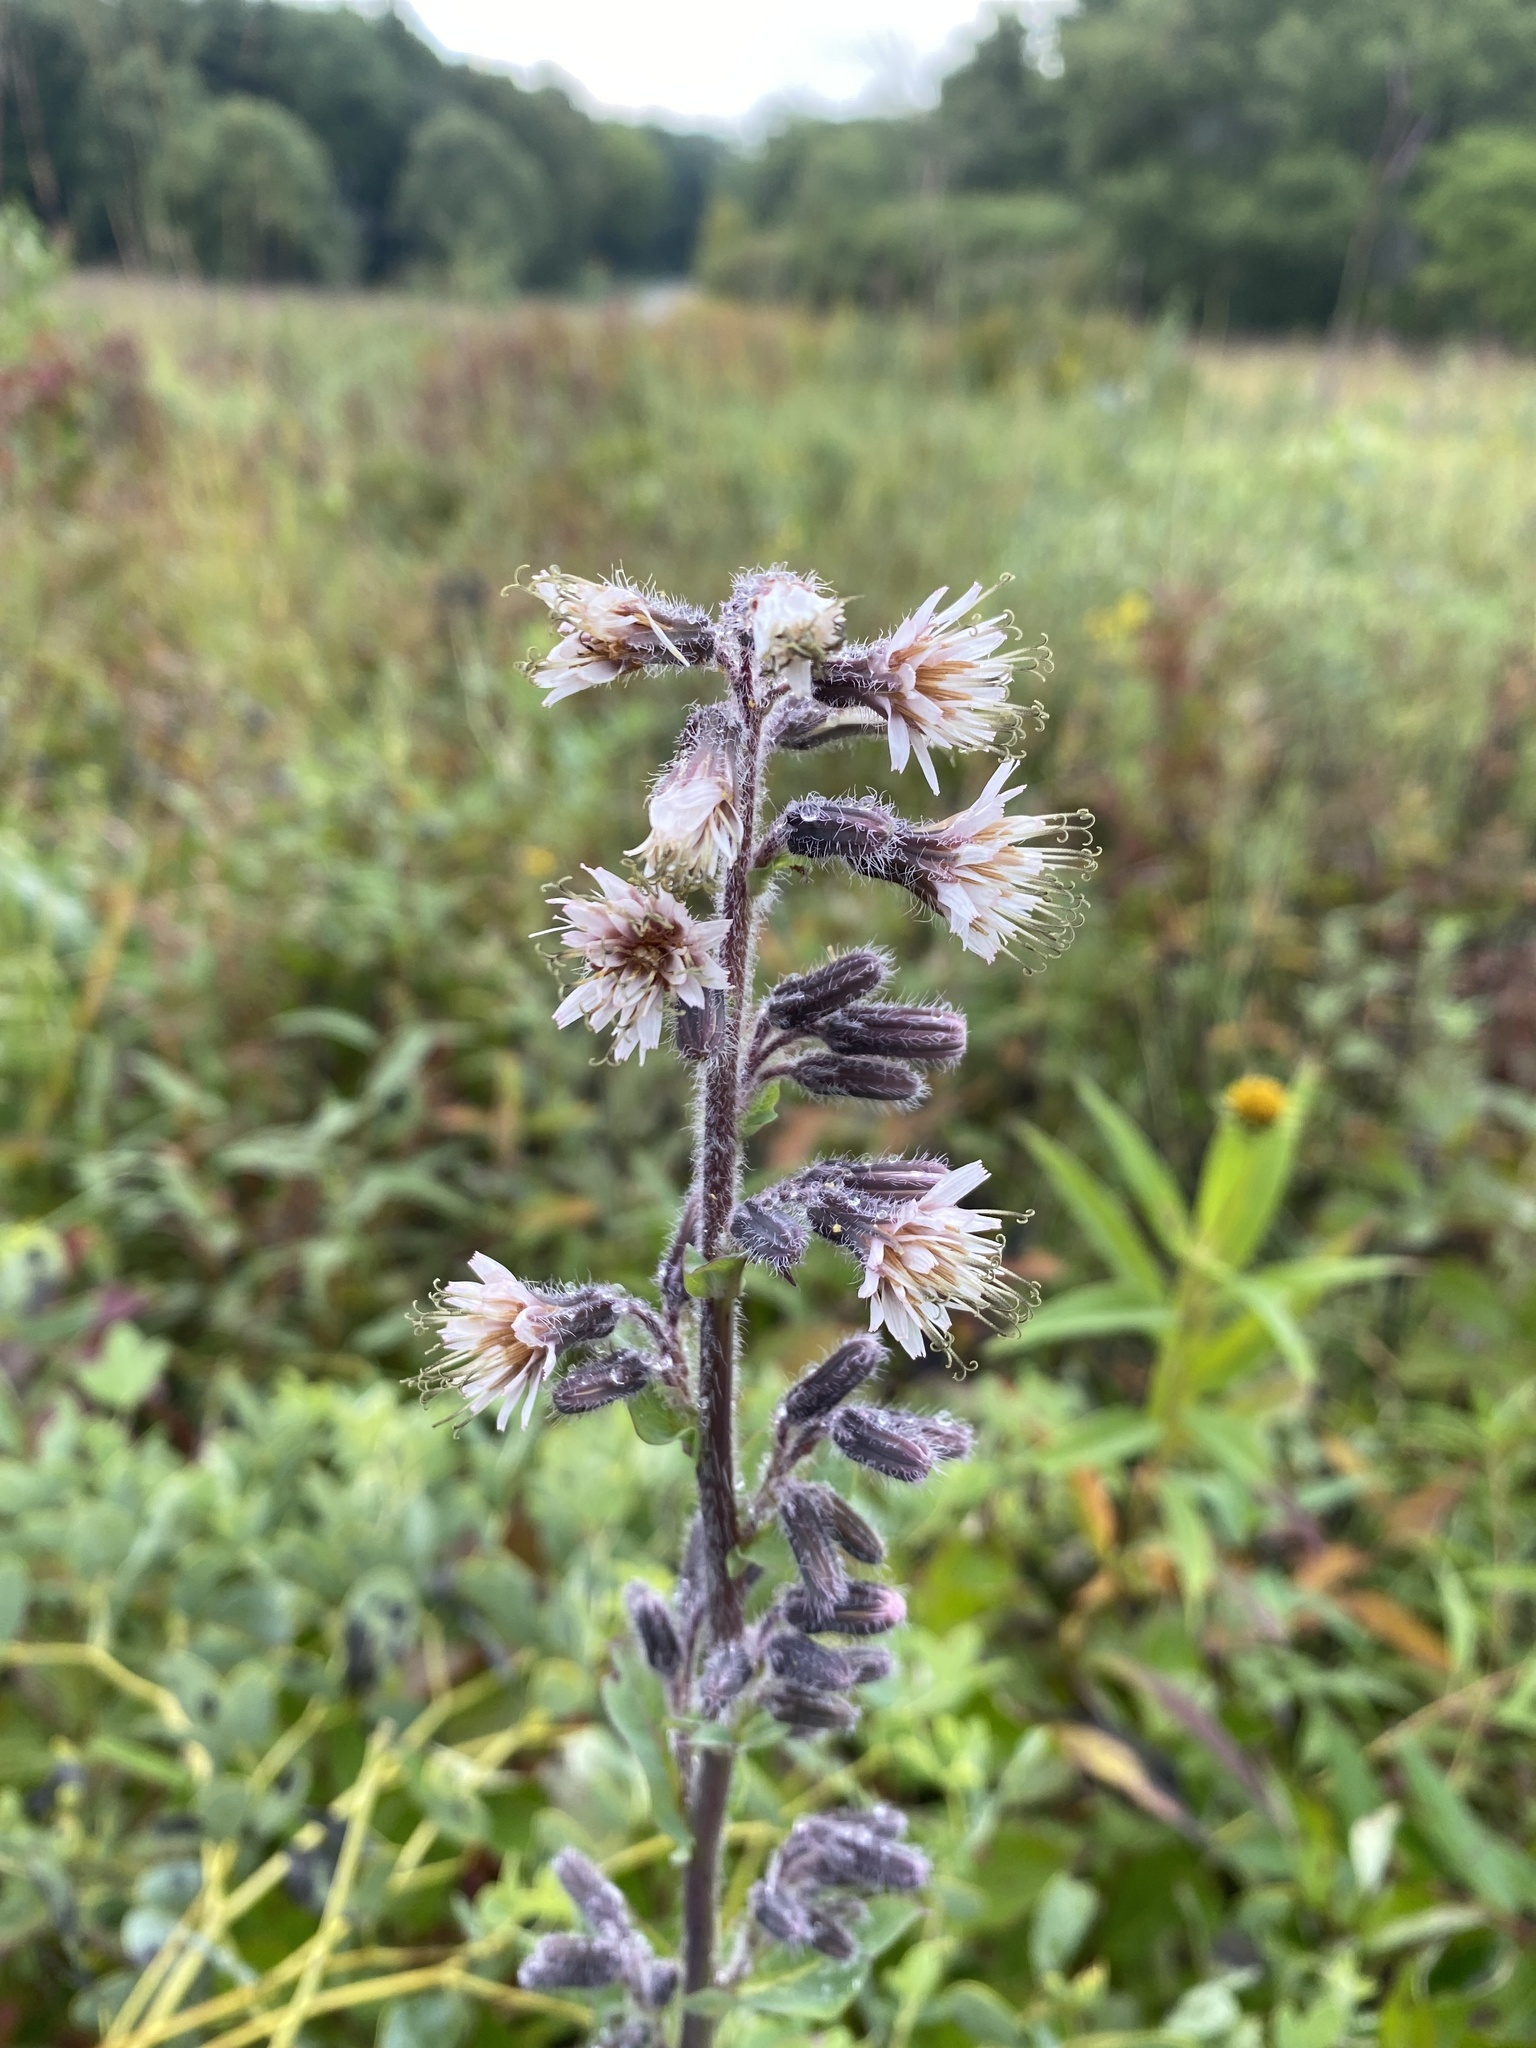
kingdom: Plantae
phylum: Tracheophyta
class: Magnoliopsida
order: Asterales
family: Asteraceae
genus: Nabalus
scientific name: Nabalus racemosus
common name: Glaucous white lettuce
